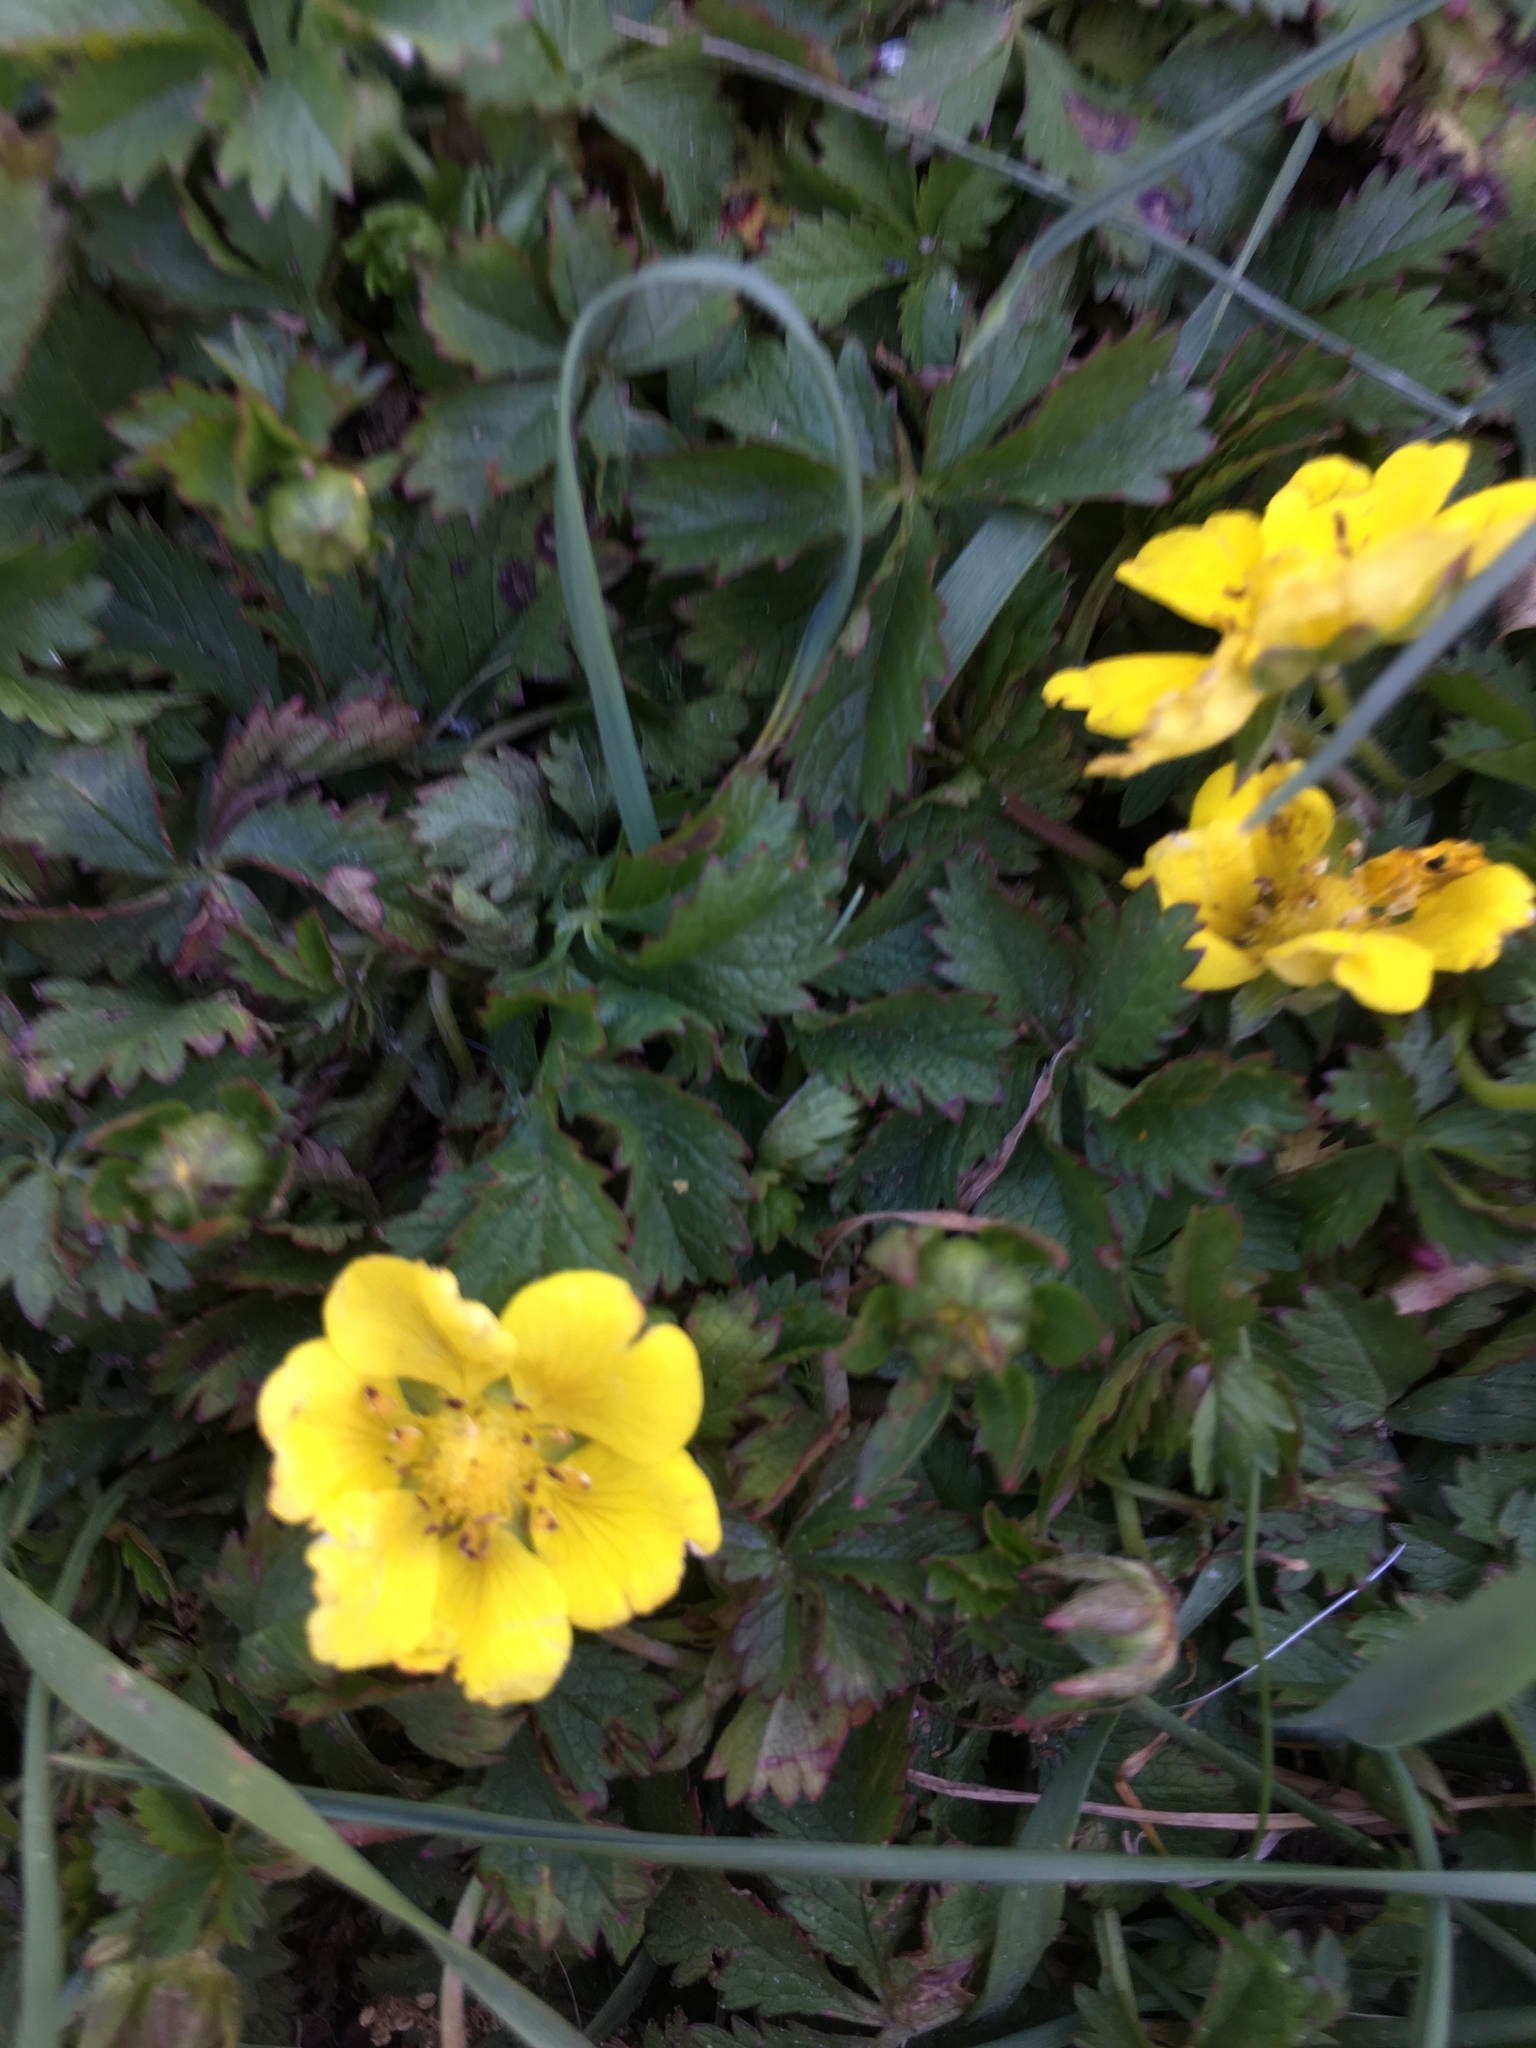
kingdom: Plantae
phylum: Tracheophyta
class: Magnoliopsida
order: Rosales
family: Rosaceae
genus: Potentilla
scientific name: Potentilla reptans
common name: Creeping cinquefoil
